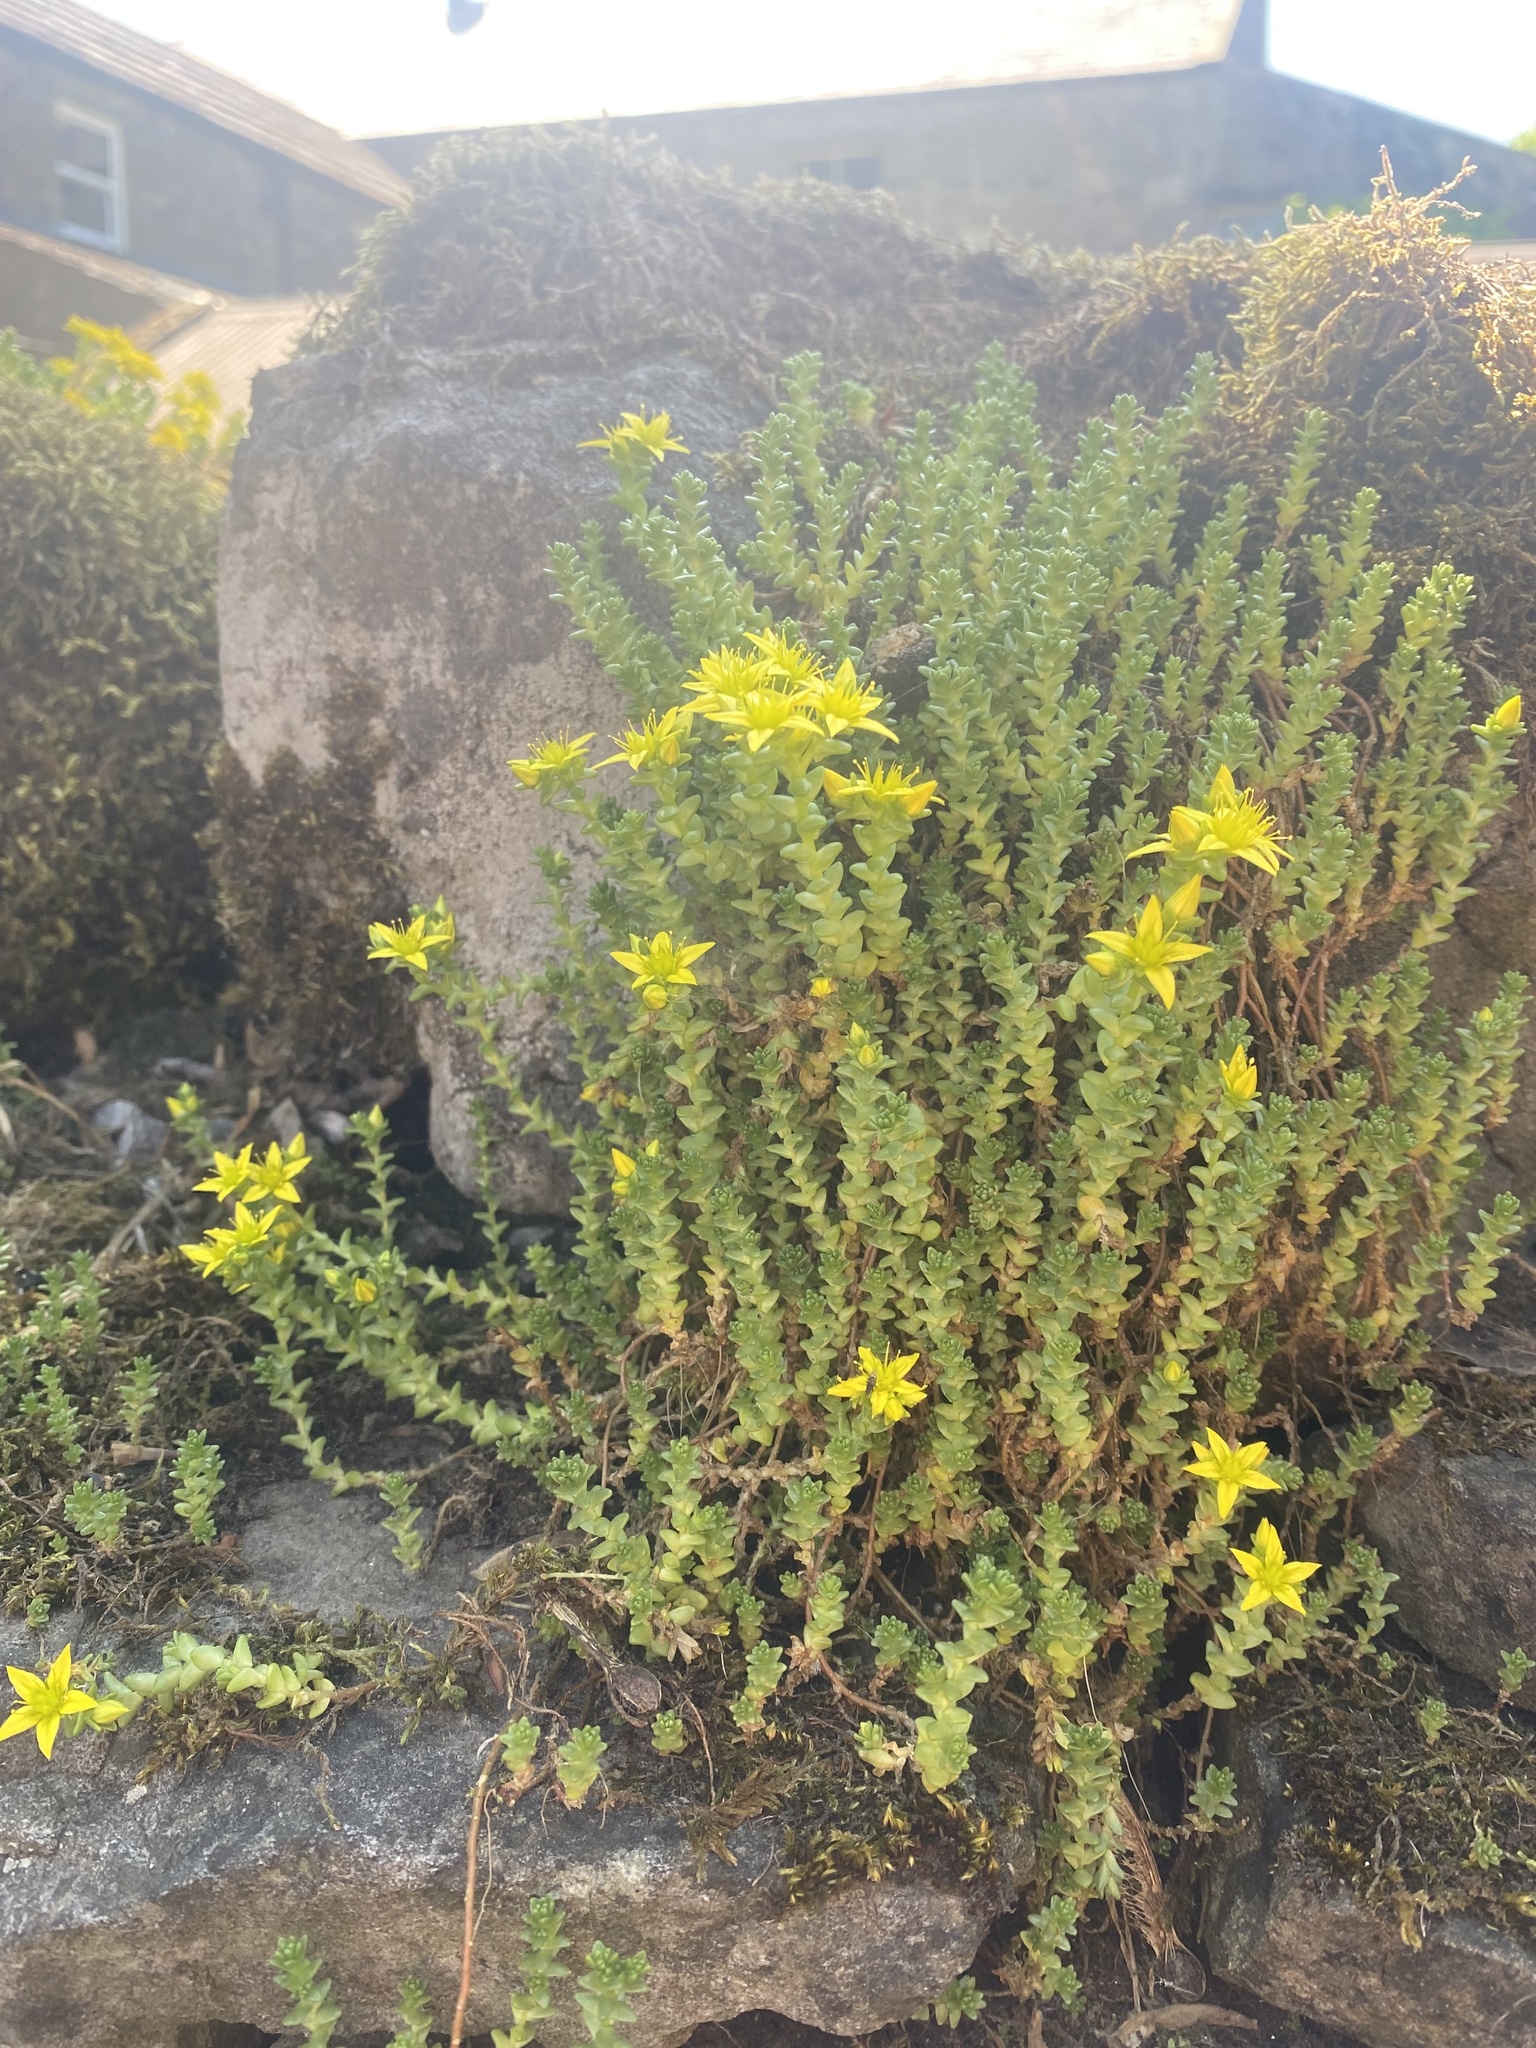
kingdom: Plantae
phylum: Tracheophyta
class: Magnoliopsida
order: Saxifragales
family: Crassulaceae
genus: Sedum
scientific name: Sedum acre
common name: Biting stonecrop
